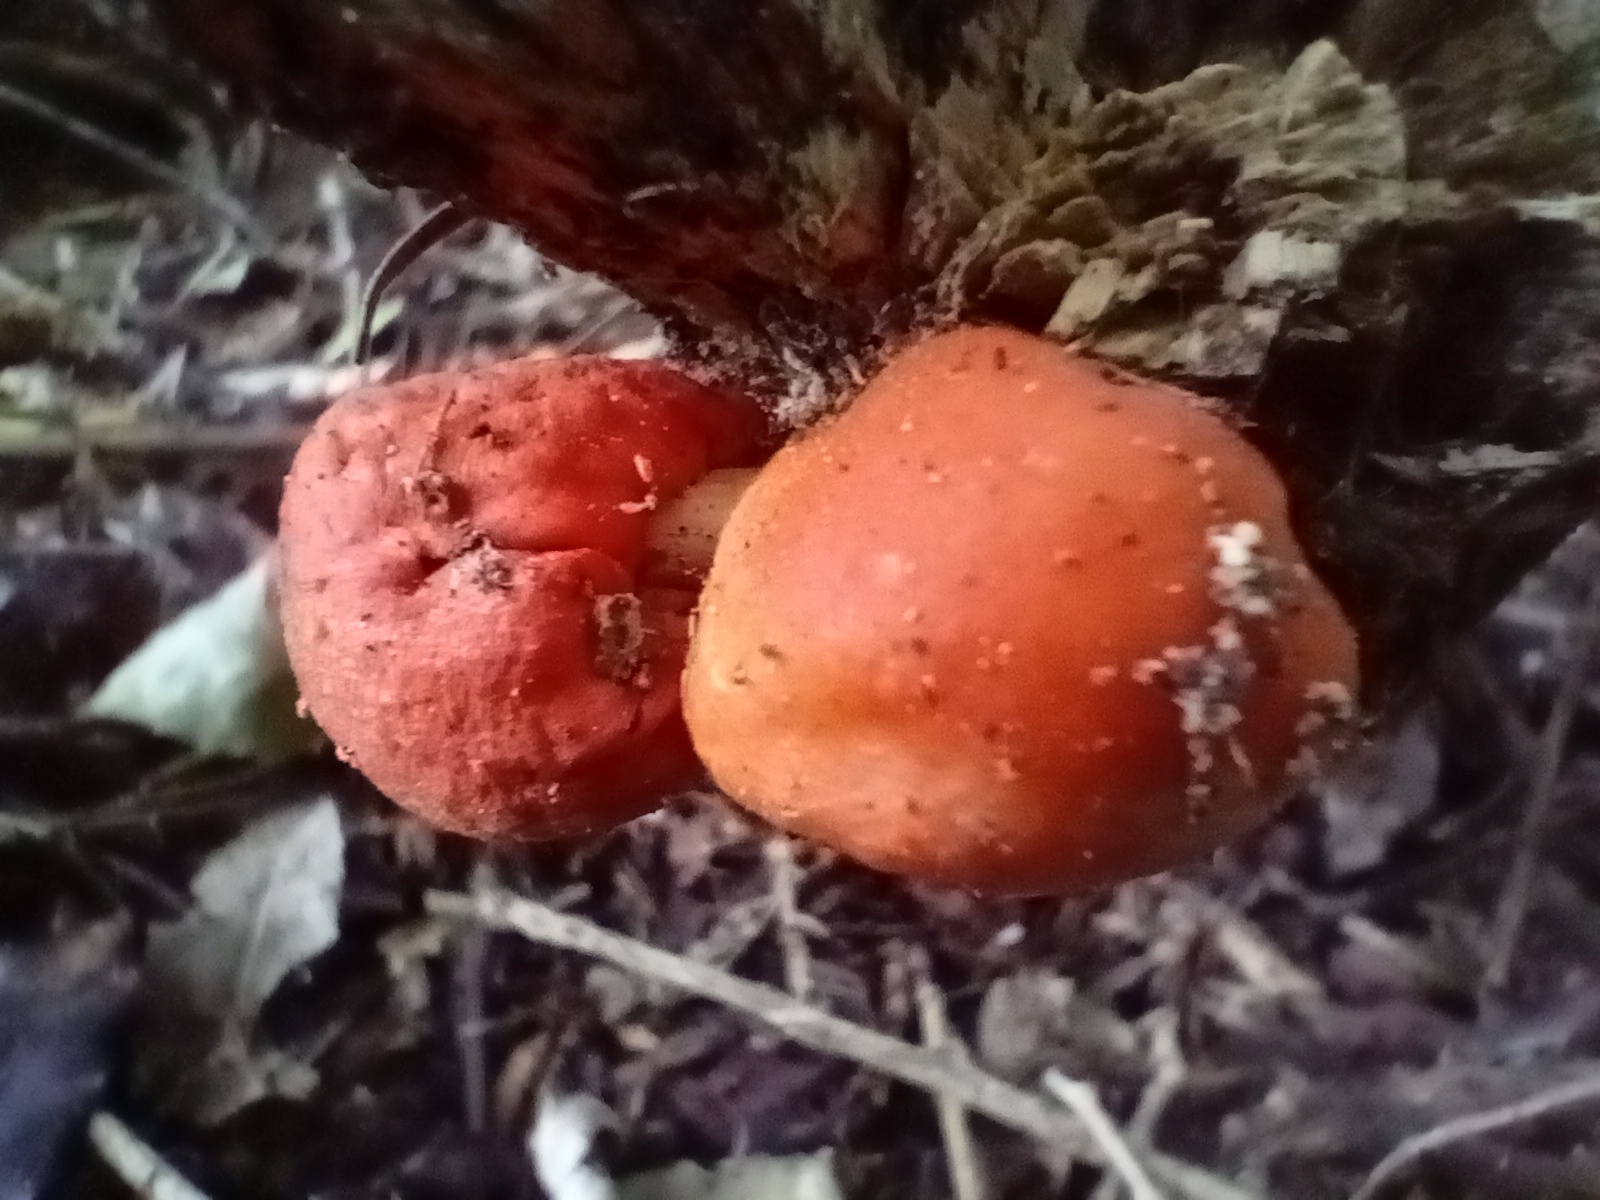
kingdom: Fungi
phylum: Basidiomycota
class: Agaricomycetes
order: Agaricales
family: Strophariaceae
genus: Leratiomyces
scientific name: Leratiomyces erythrocephalus
